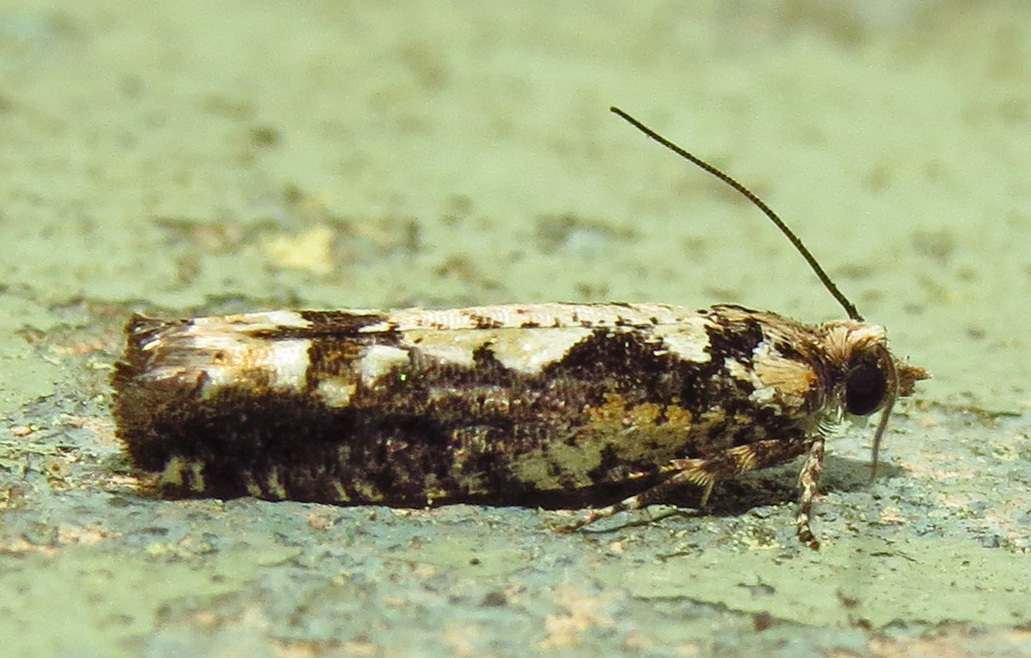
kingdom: Animalia
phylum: Arthropoda
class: Insecta
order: Lepidoptera
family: Tortricidae
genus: Chimoptesis
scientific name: Chimoptesis pennsylvaniana
